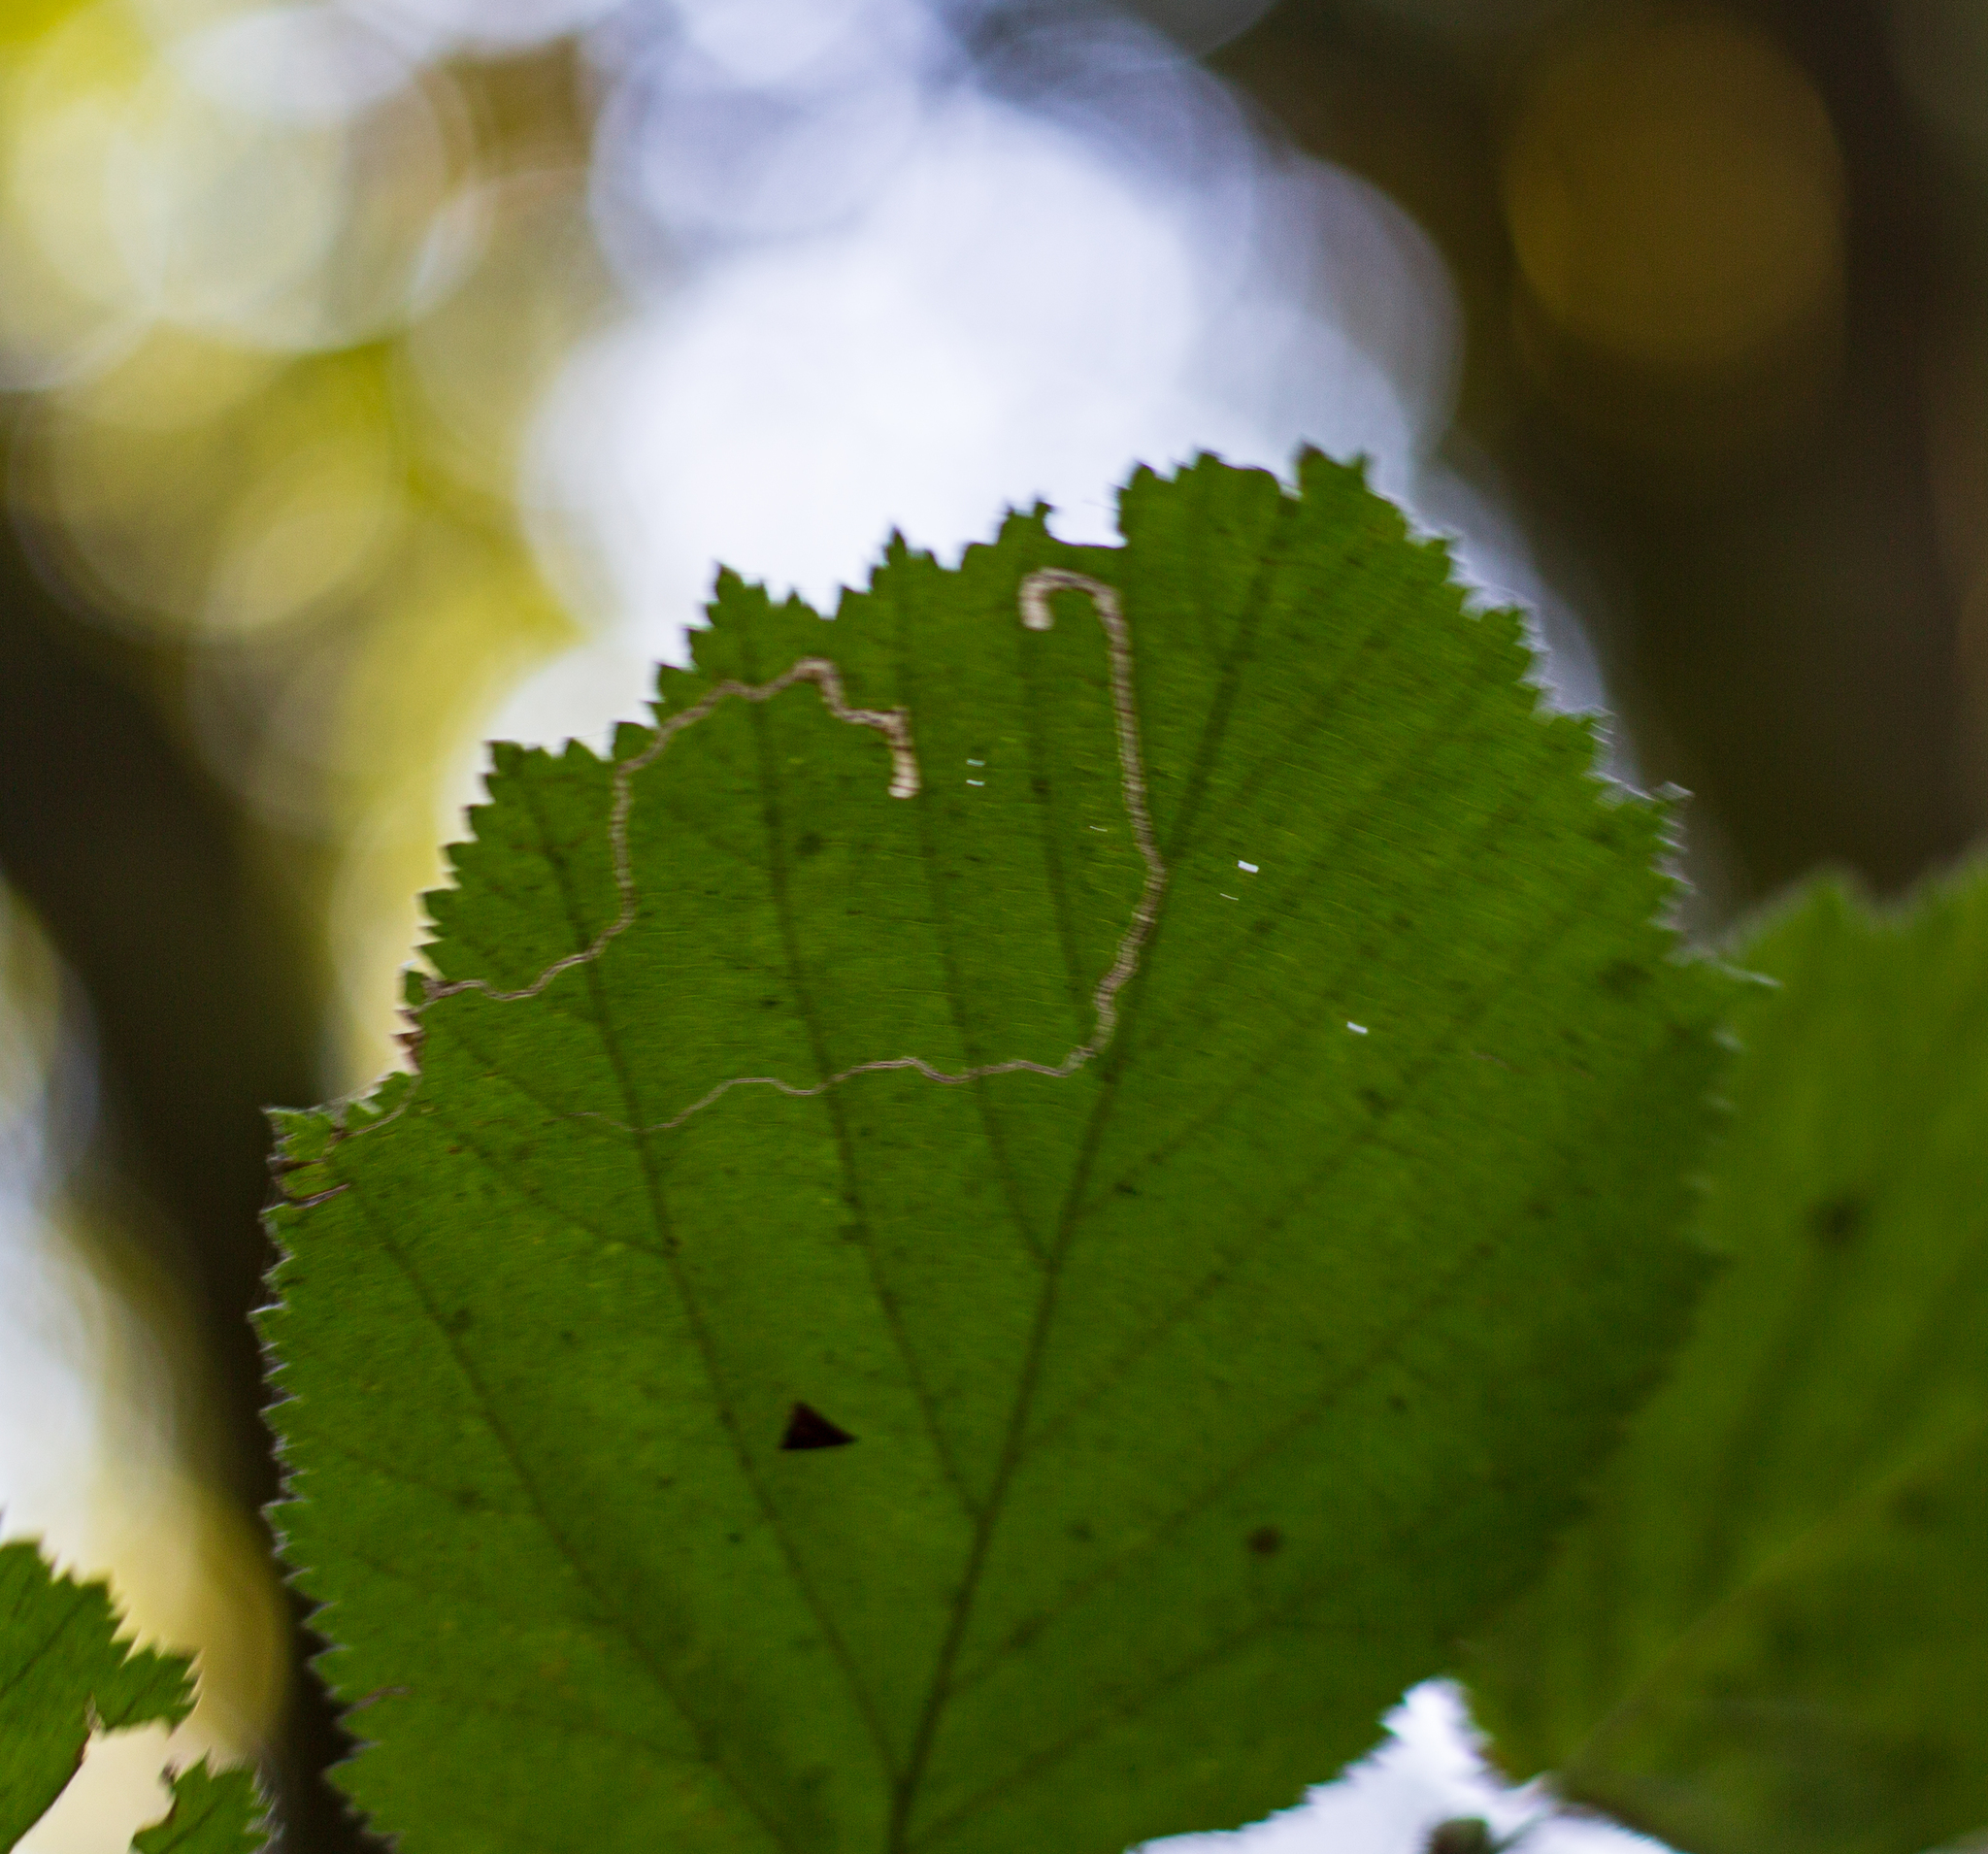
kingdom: Animalia
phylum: Arthropoda
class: Insecta
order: Lepidoptera
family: Nepticulidae
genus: Stigmella
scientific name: Stigmella microtheriella
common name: Nut-tree pigmy
